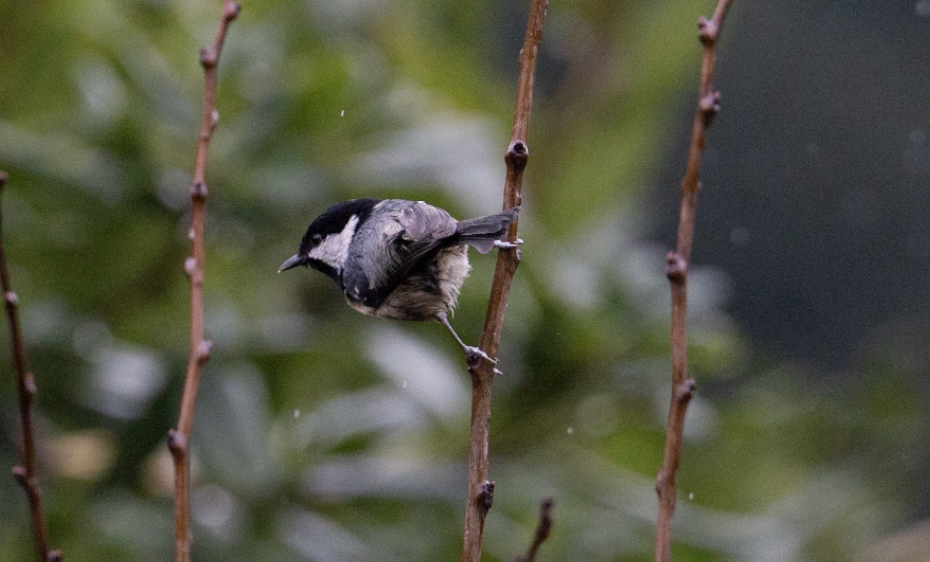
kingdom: Animalia
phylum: Chordata
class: Aves
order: Passeriformes
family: Paridae
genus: Periparus
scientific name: Periparus ater
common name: Coal tit
